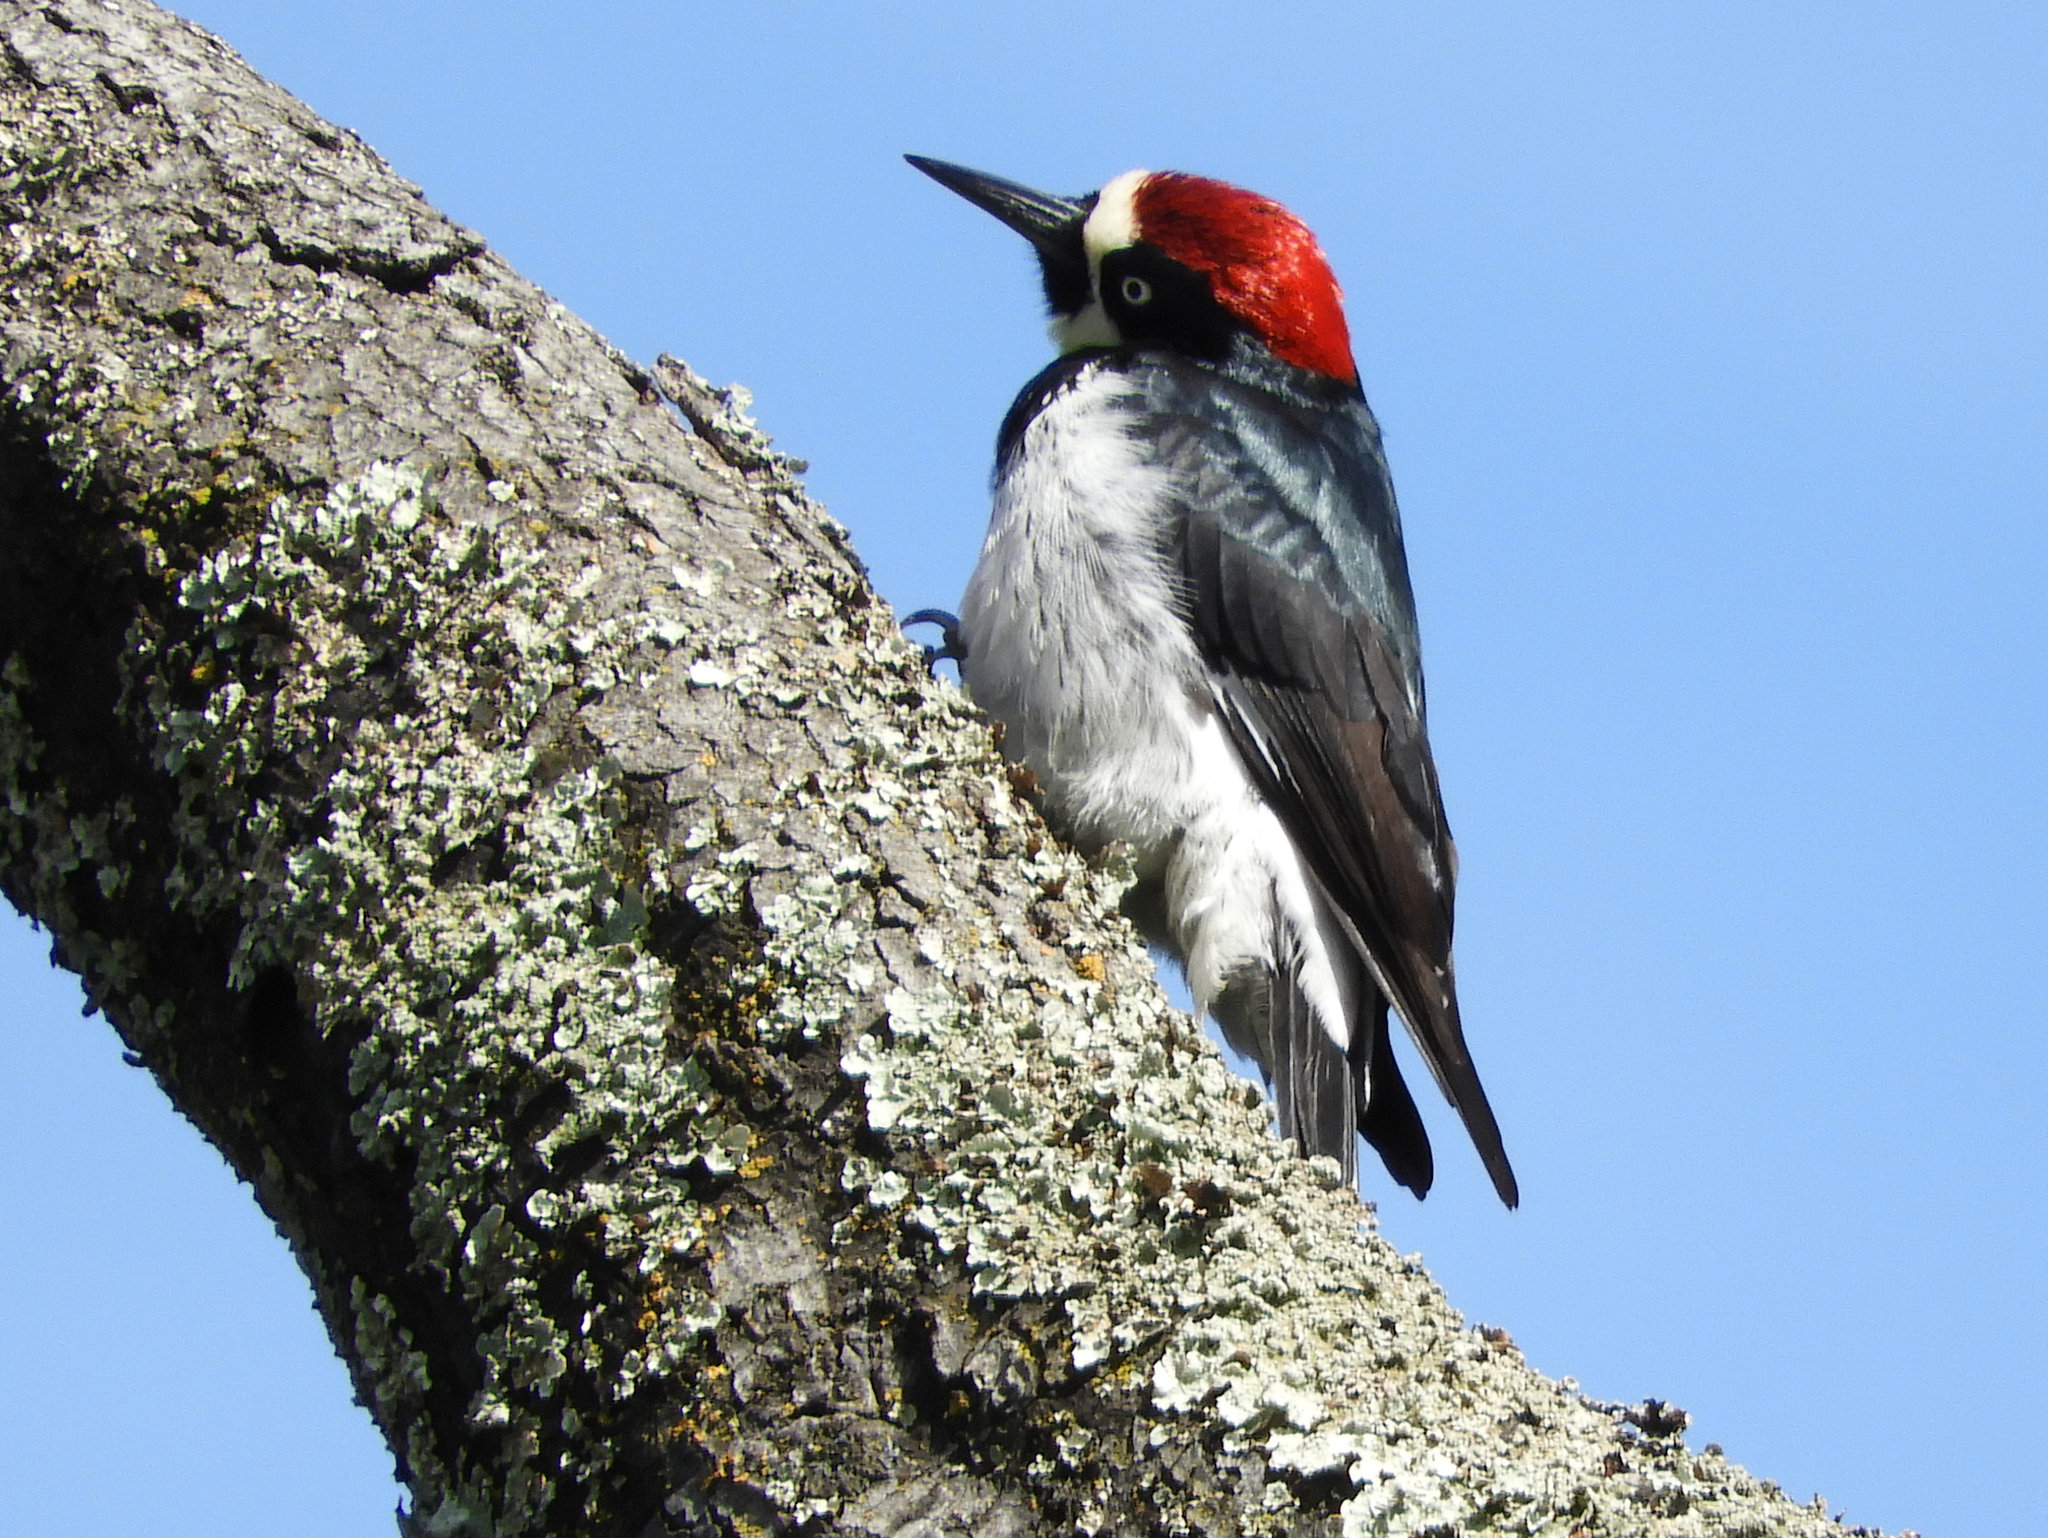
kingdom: Animalia
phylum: Chordata
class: Aves
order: Piciformes
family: Picidae
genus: Melanerpes
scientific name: Melanerpes formicivorus
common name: Acorn woodpecker
